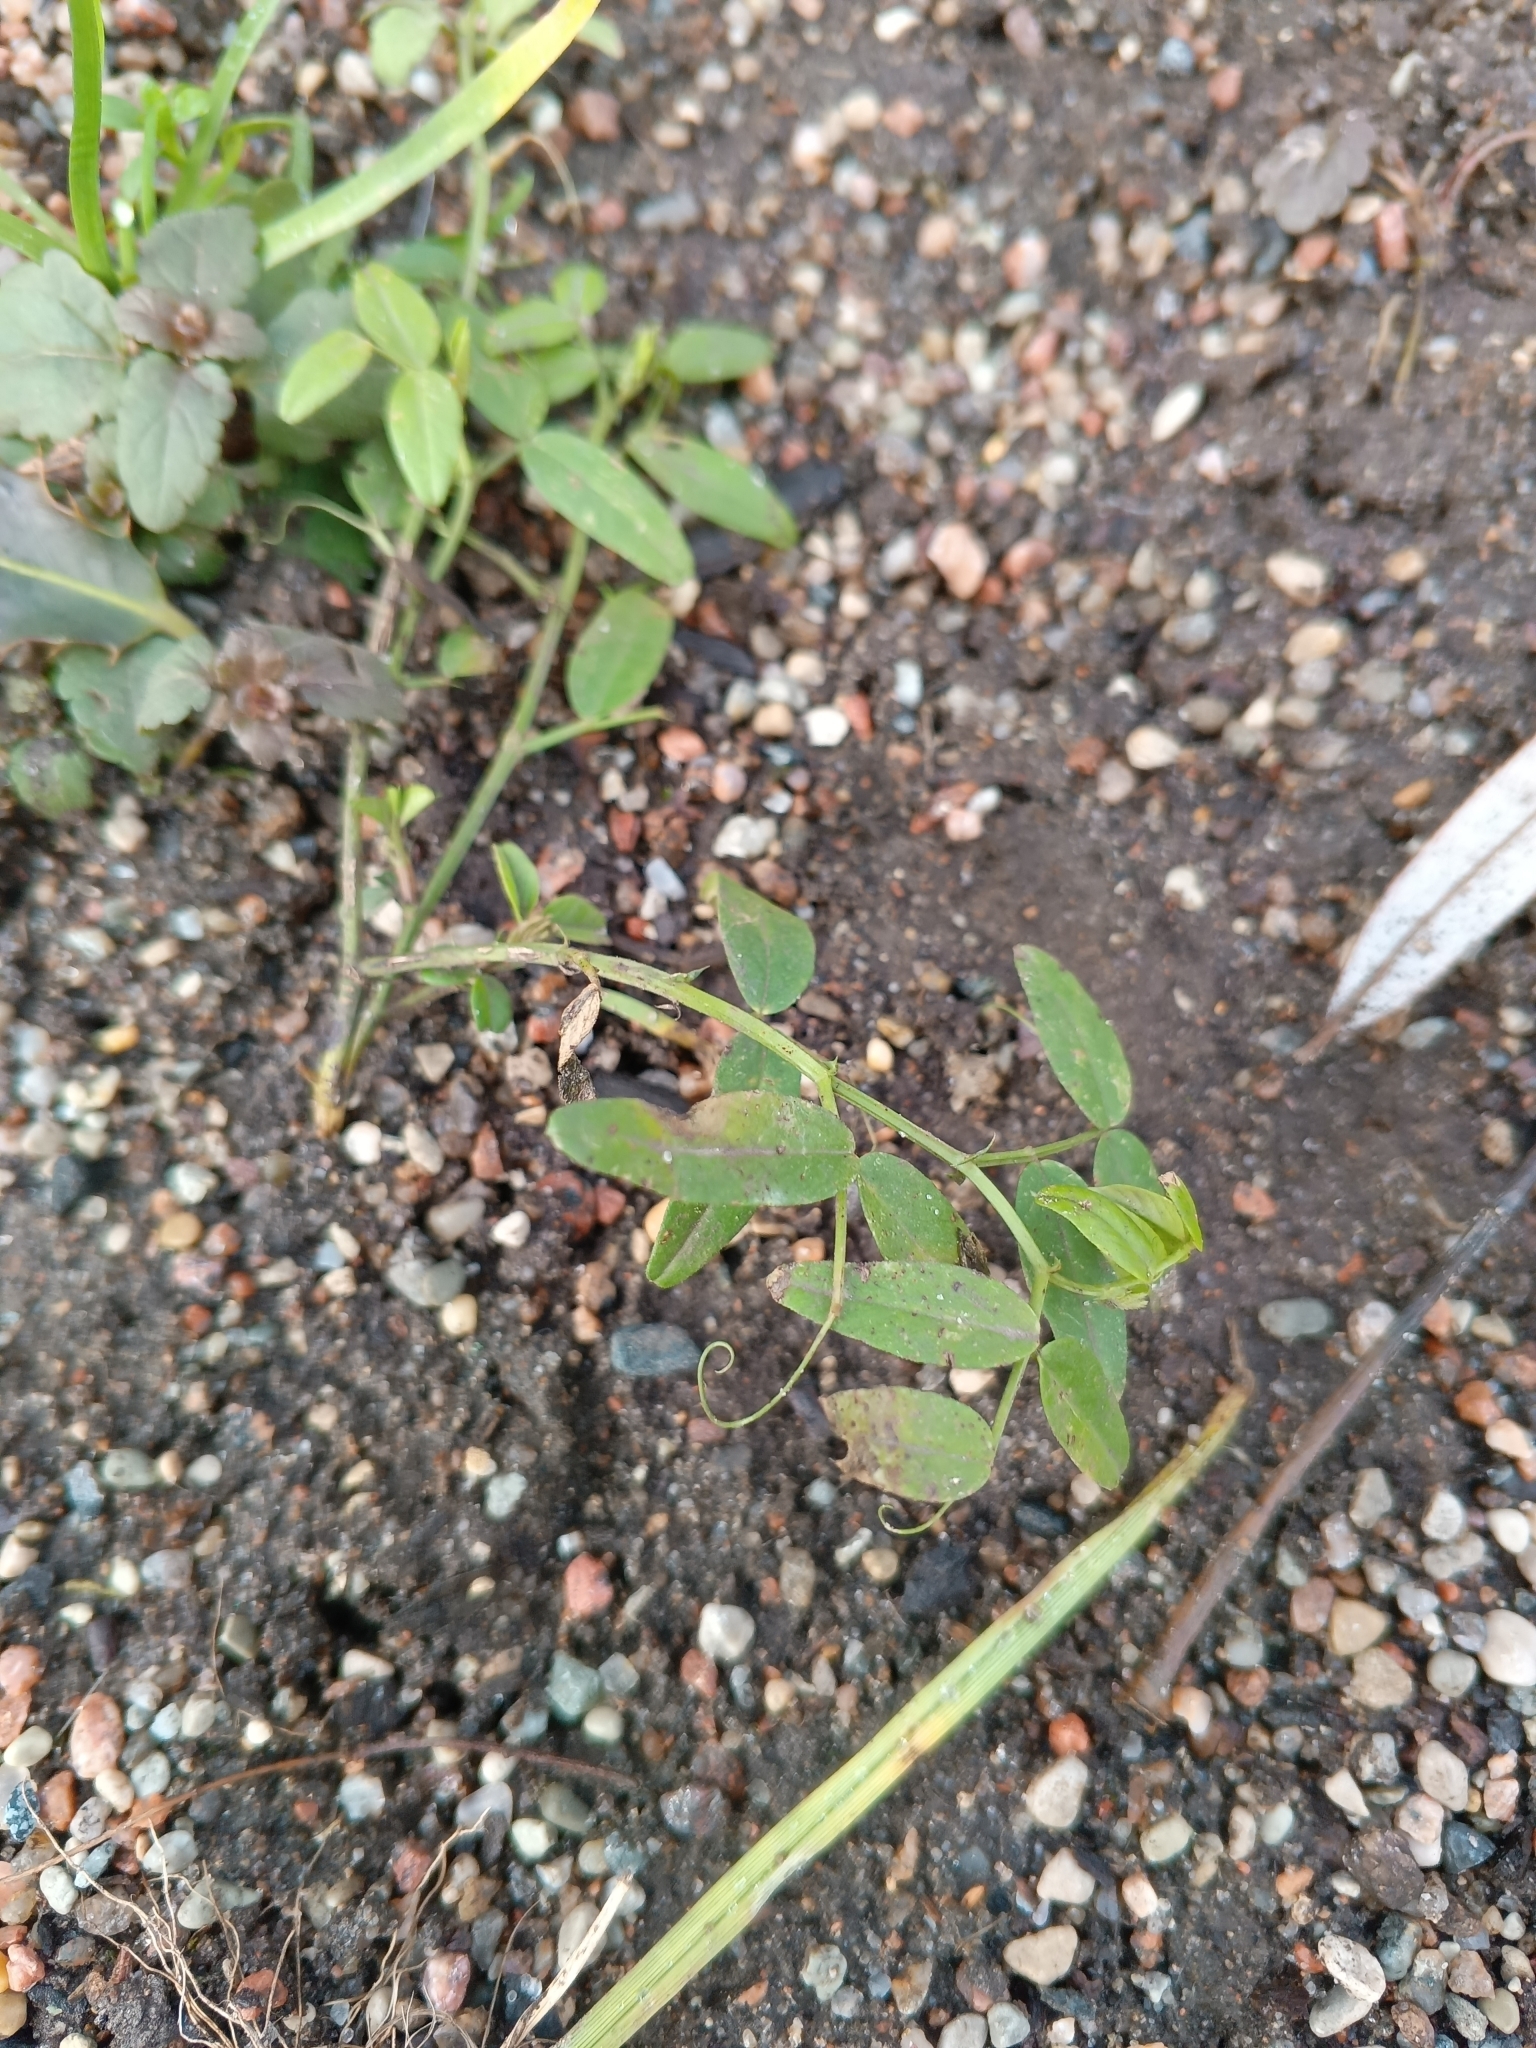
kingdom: Plantae
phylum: Tracheophyta
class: Magnoliopsida
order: Fabales
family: Fabaceae
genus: Vicia
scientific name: Vicia sepium
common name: Bush vetch
